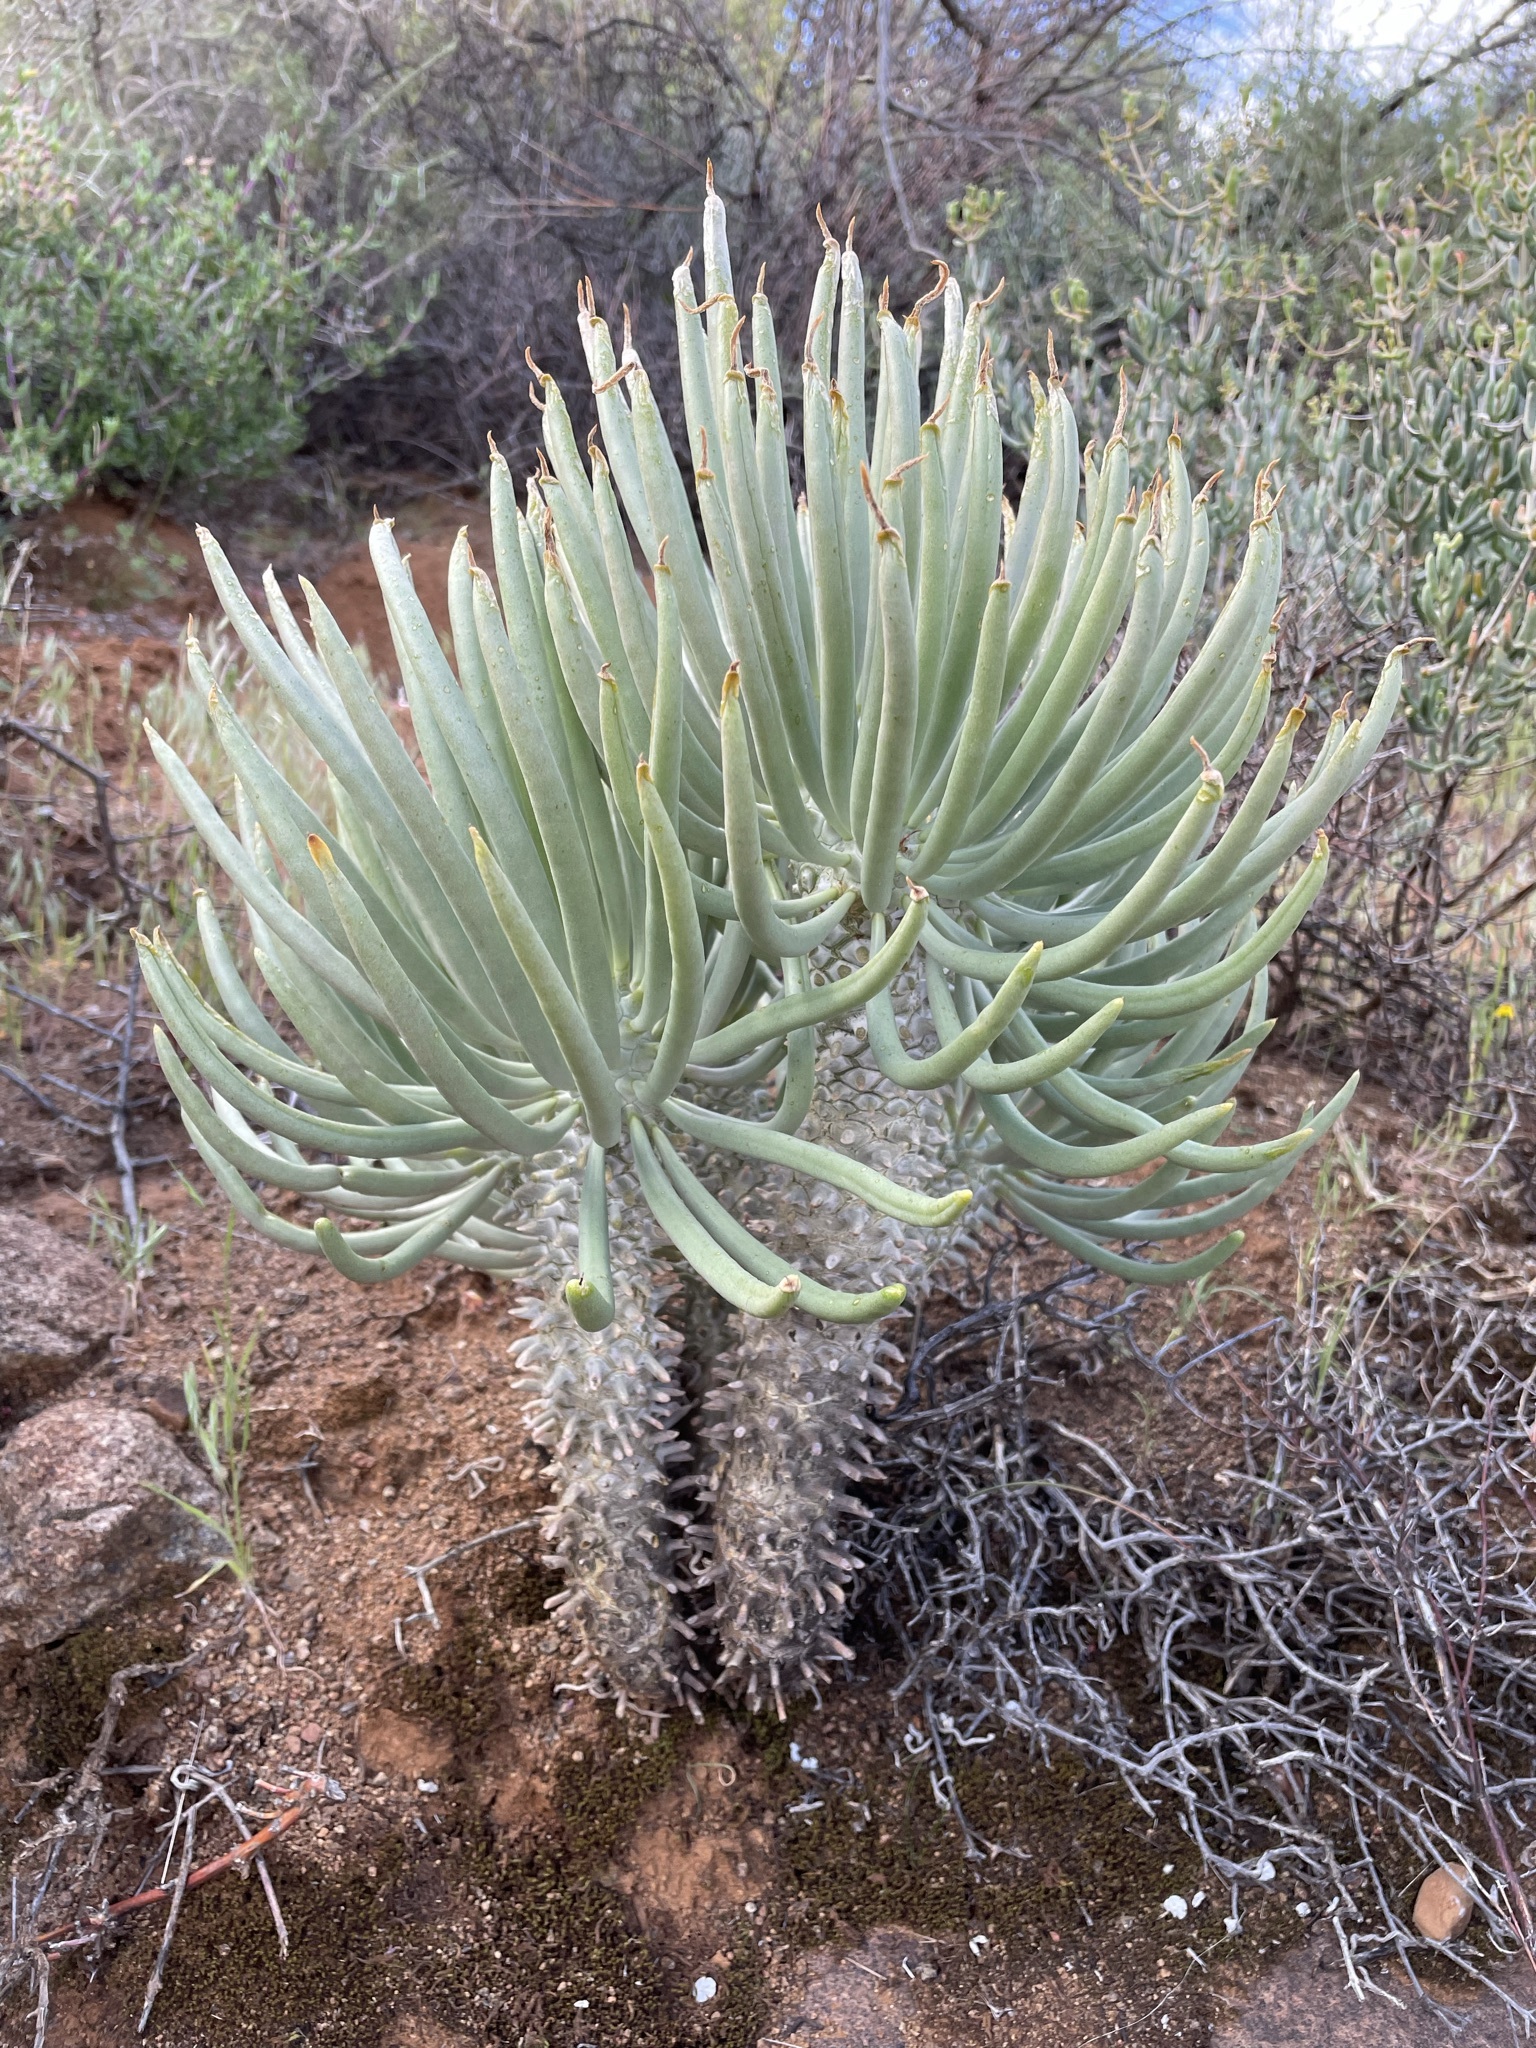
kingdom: Plantae
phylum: Tracheophyta
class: Magnoliopsida
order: Saxifragales
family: Crassulaceae
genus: Tylecodon
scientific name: Tylecodon wallichii
